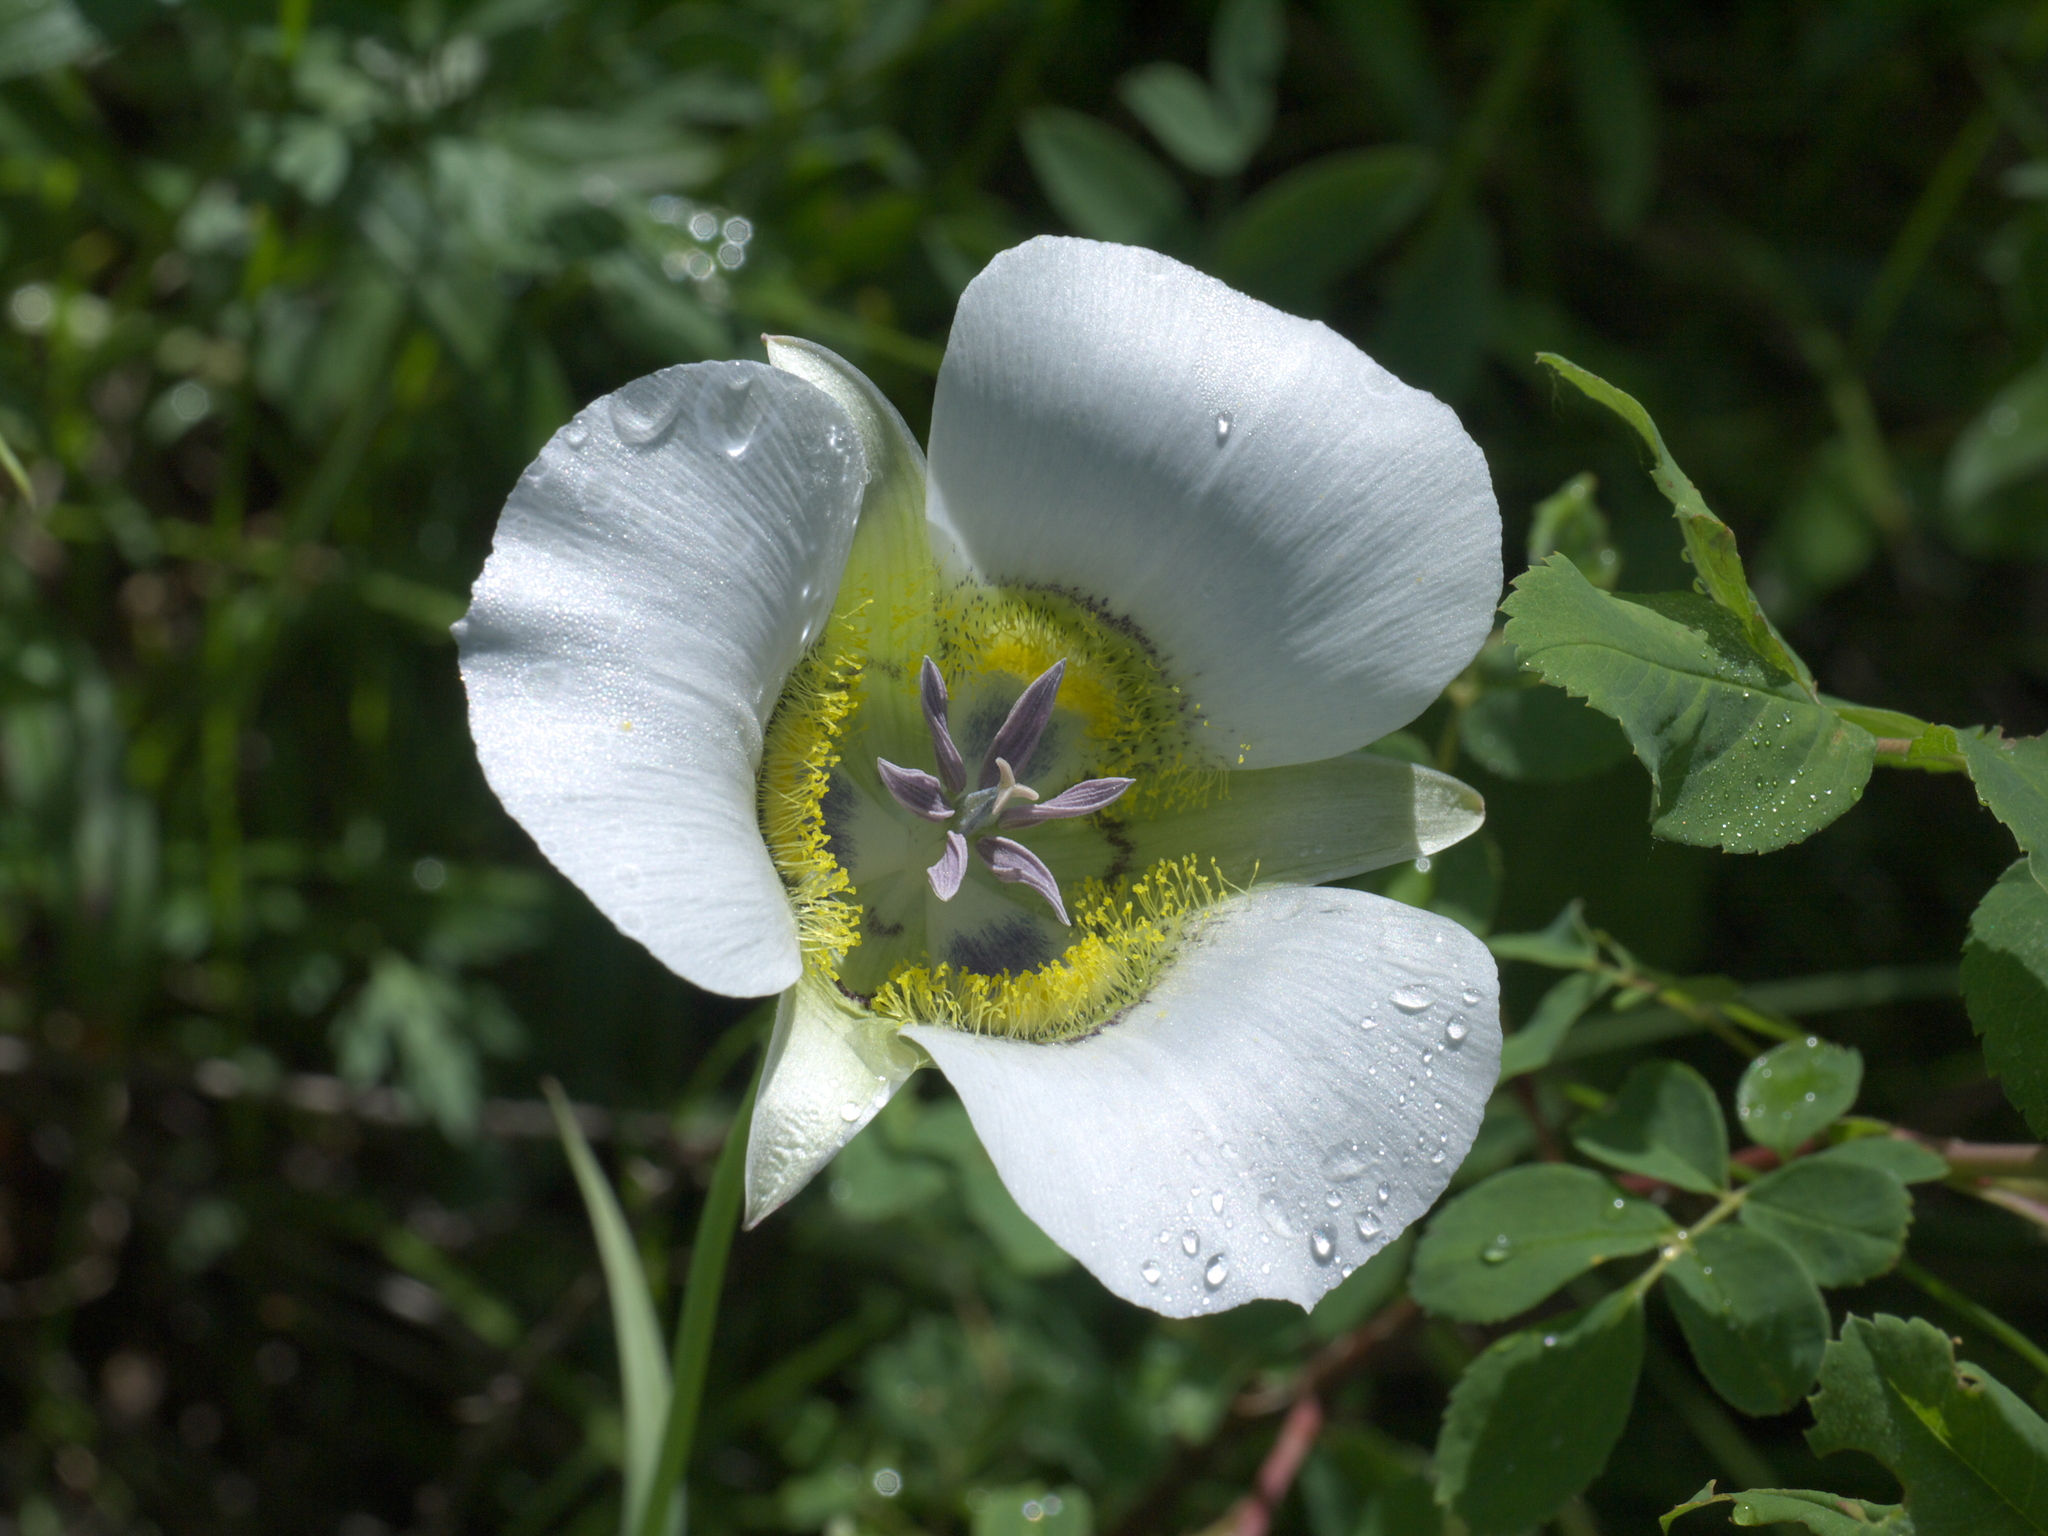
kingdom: Plantae
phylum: Tracheophyta
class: Liliopsida
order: Liliales
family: Liliaceae
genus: Calochortus
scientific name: Calochortus gunnisonii
